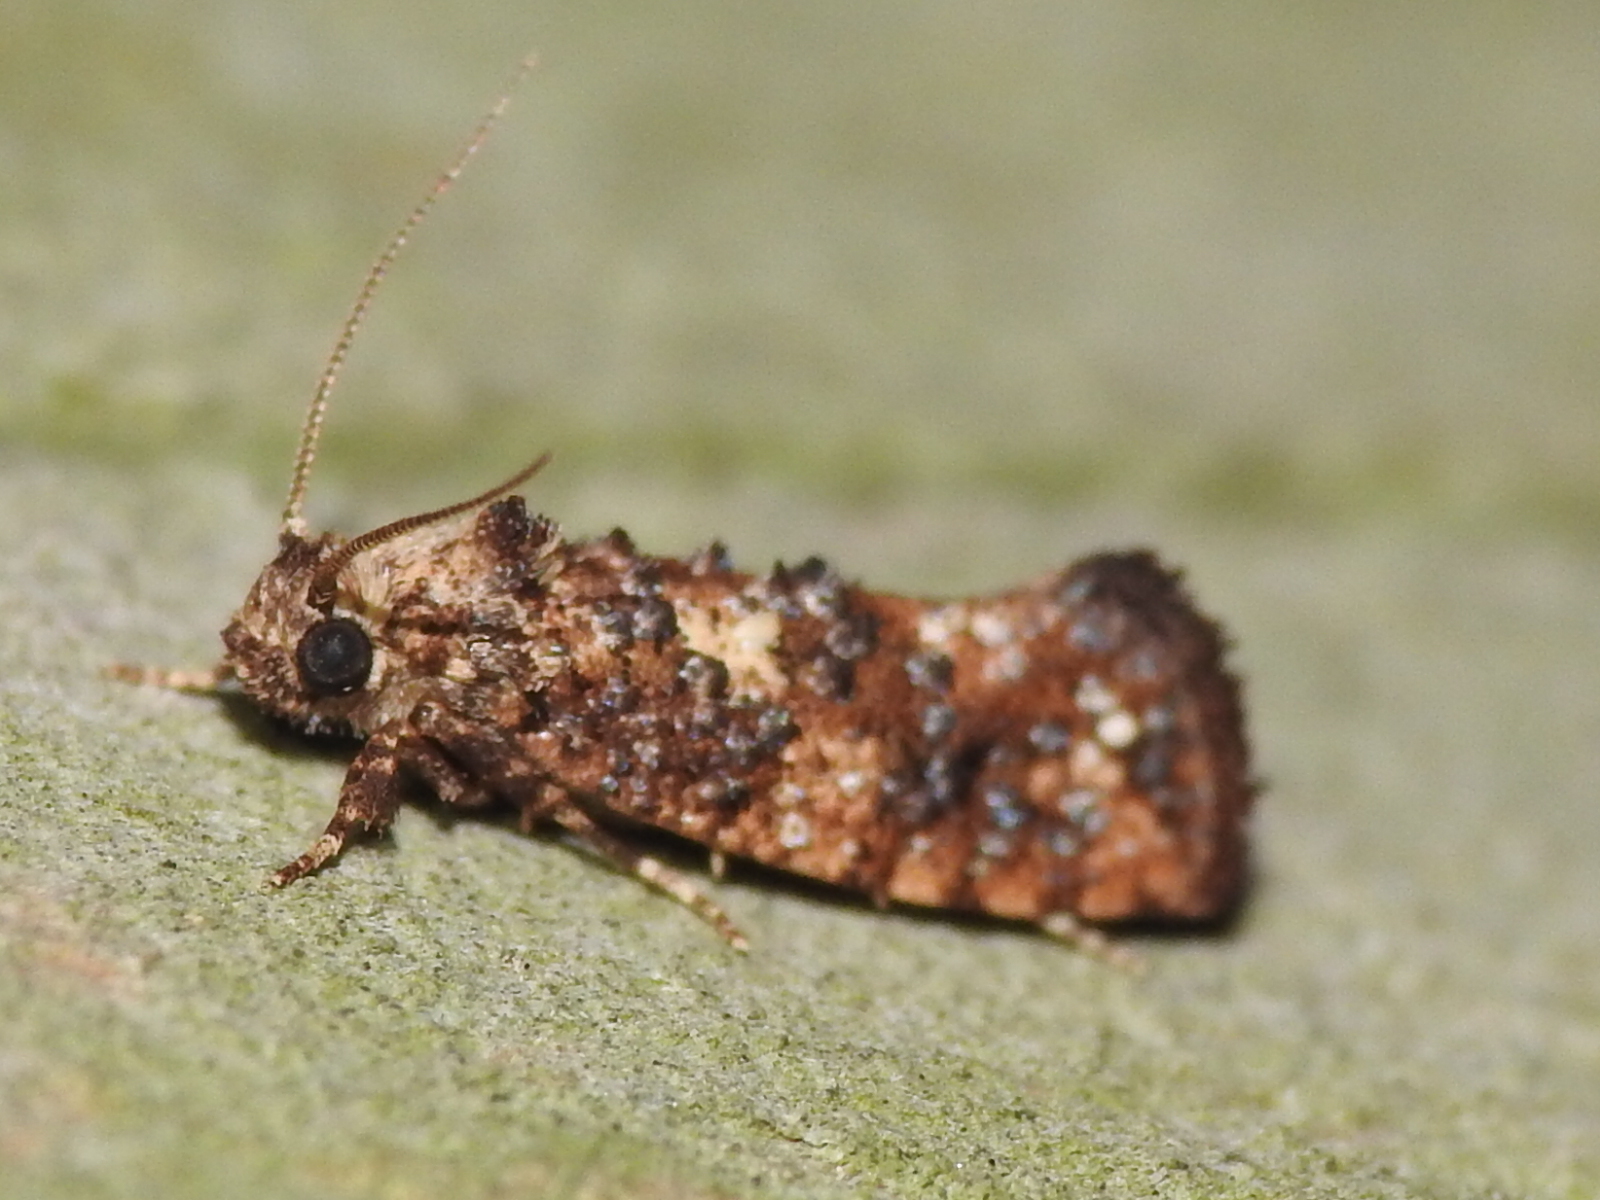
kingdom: Animalia
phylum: Arthropoda
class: Insecta
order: Lepidoptera
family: Tineidae
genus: Acrolophus
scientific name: Acrolophus cressoni
